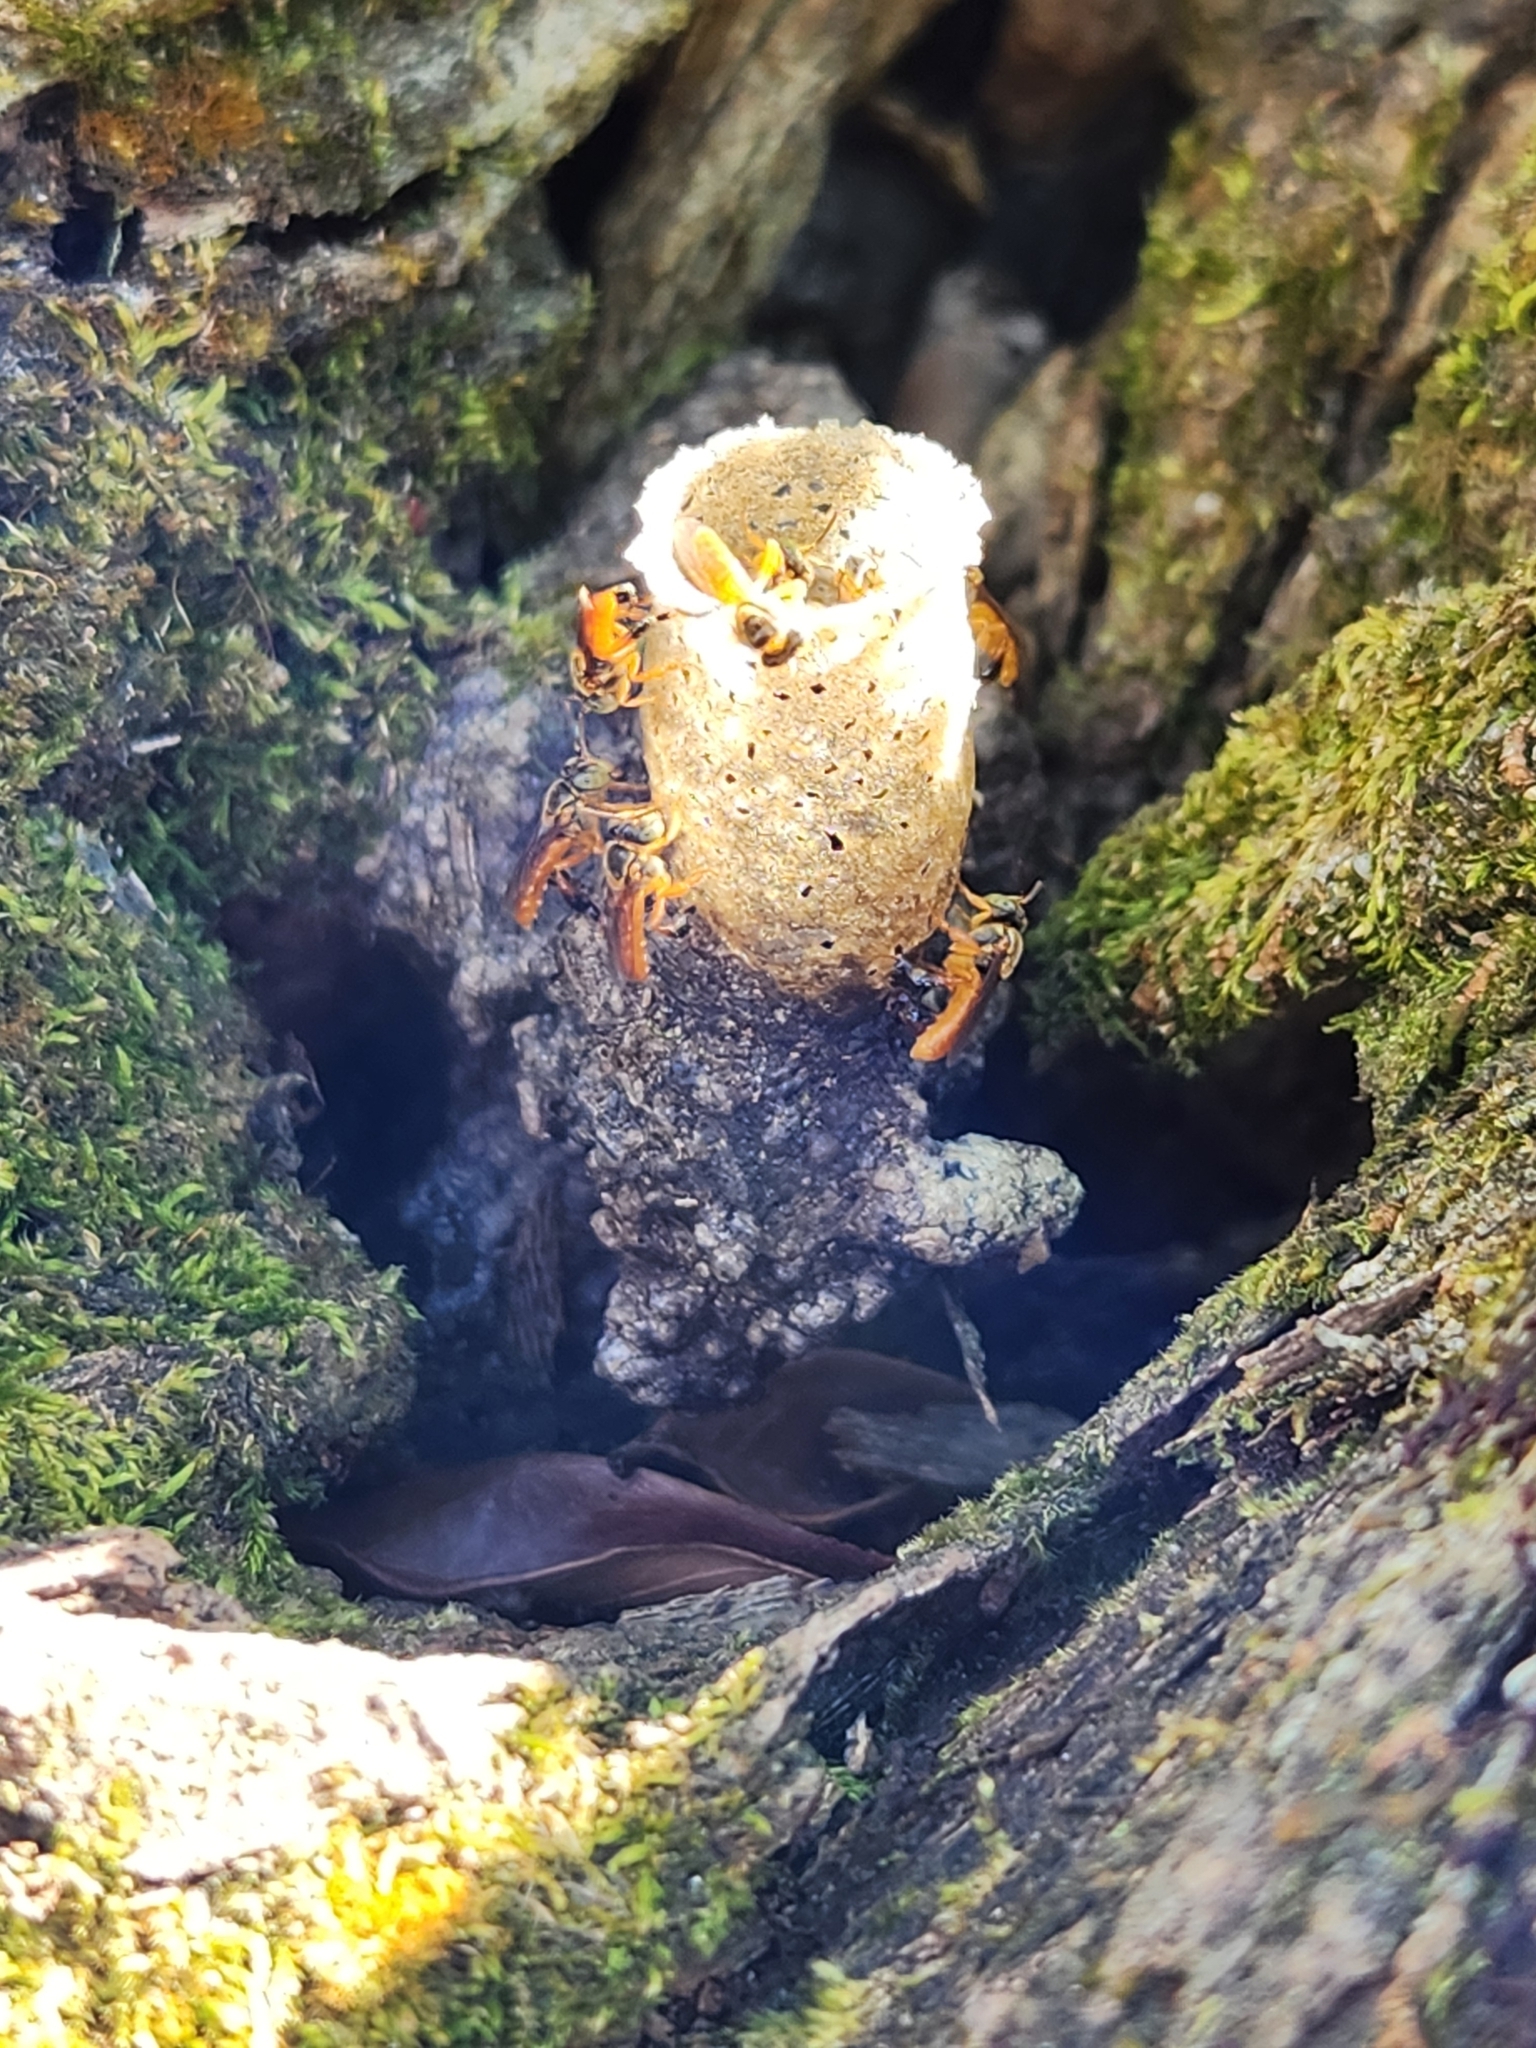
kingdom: Animalia
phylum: Arthropoda
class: Insecta
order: Hymenoptera
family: Apidae
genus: Tetragonisca
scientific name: Tetragonisca angustula
